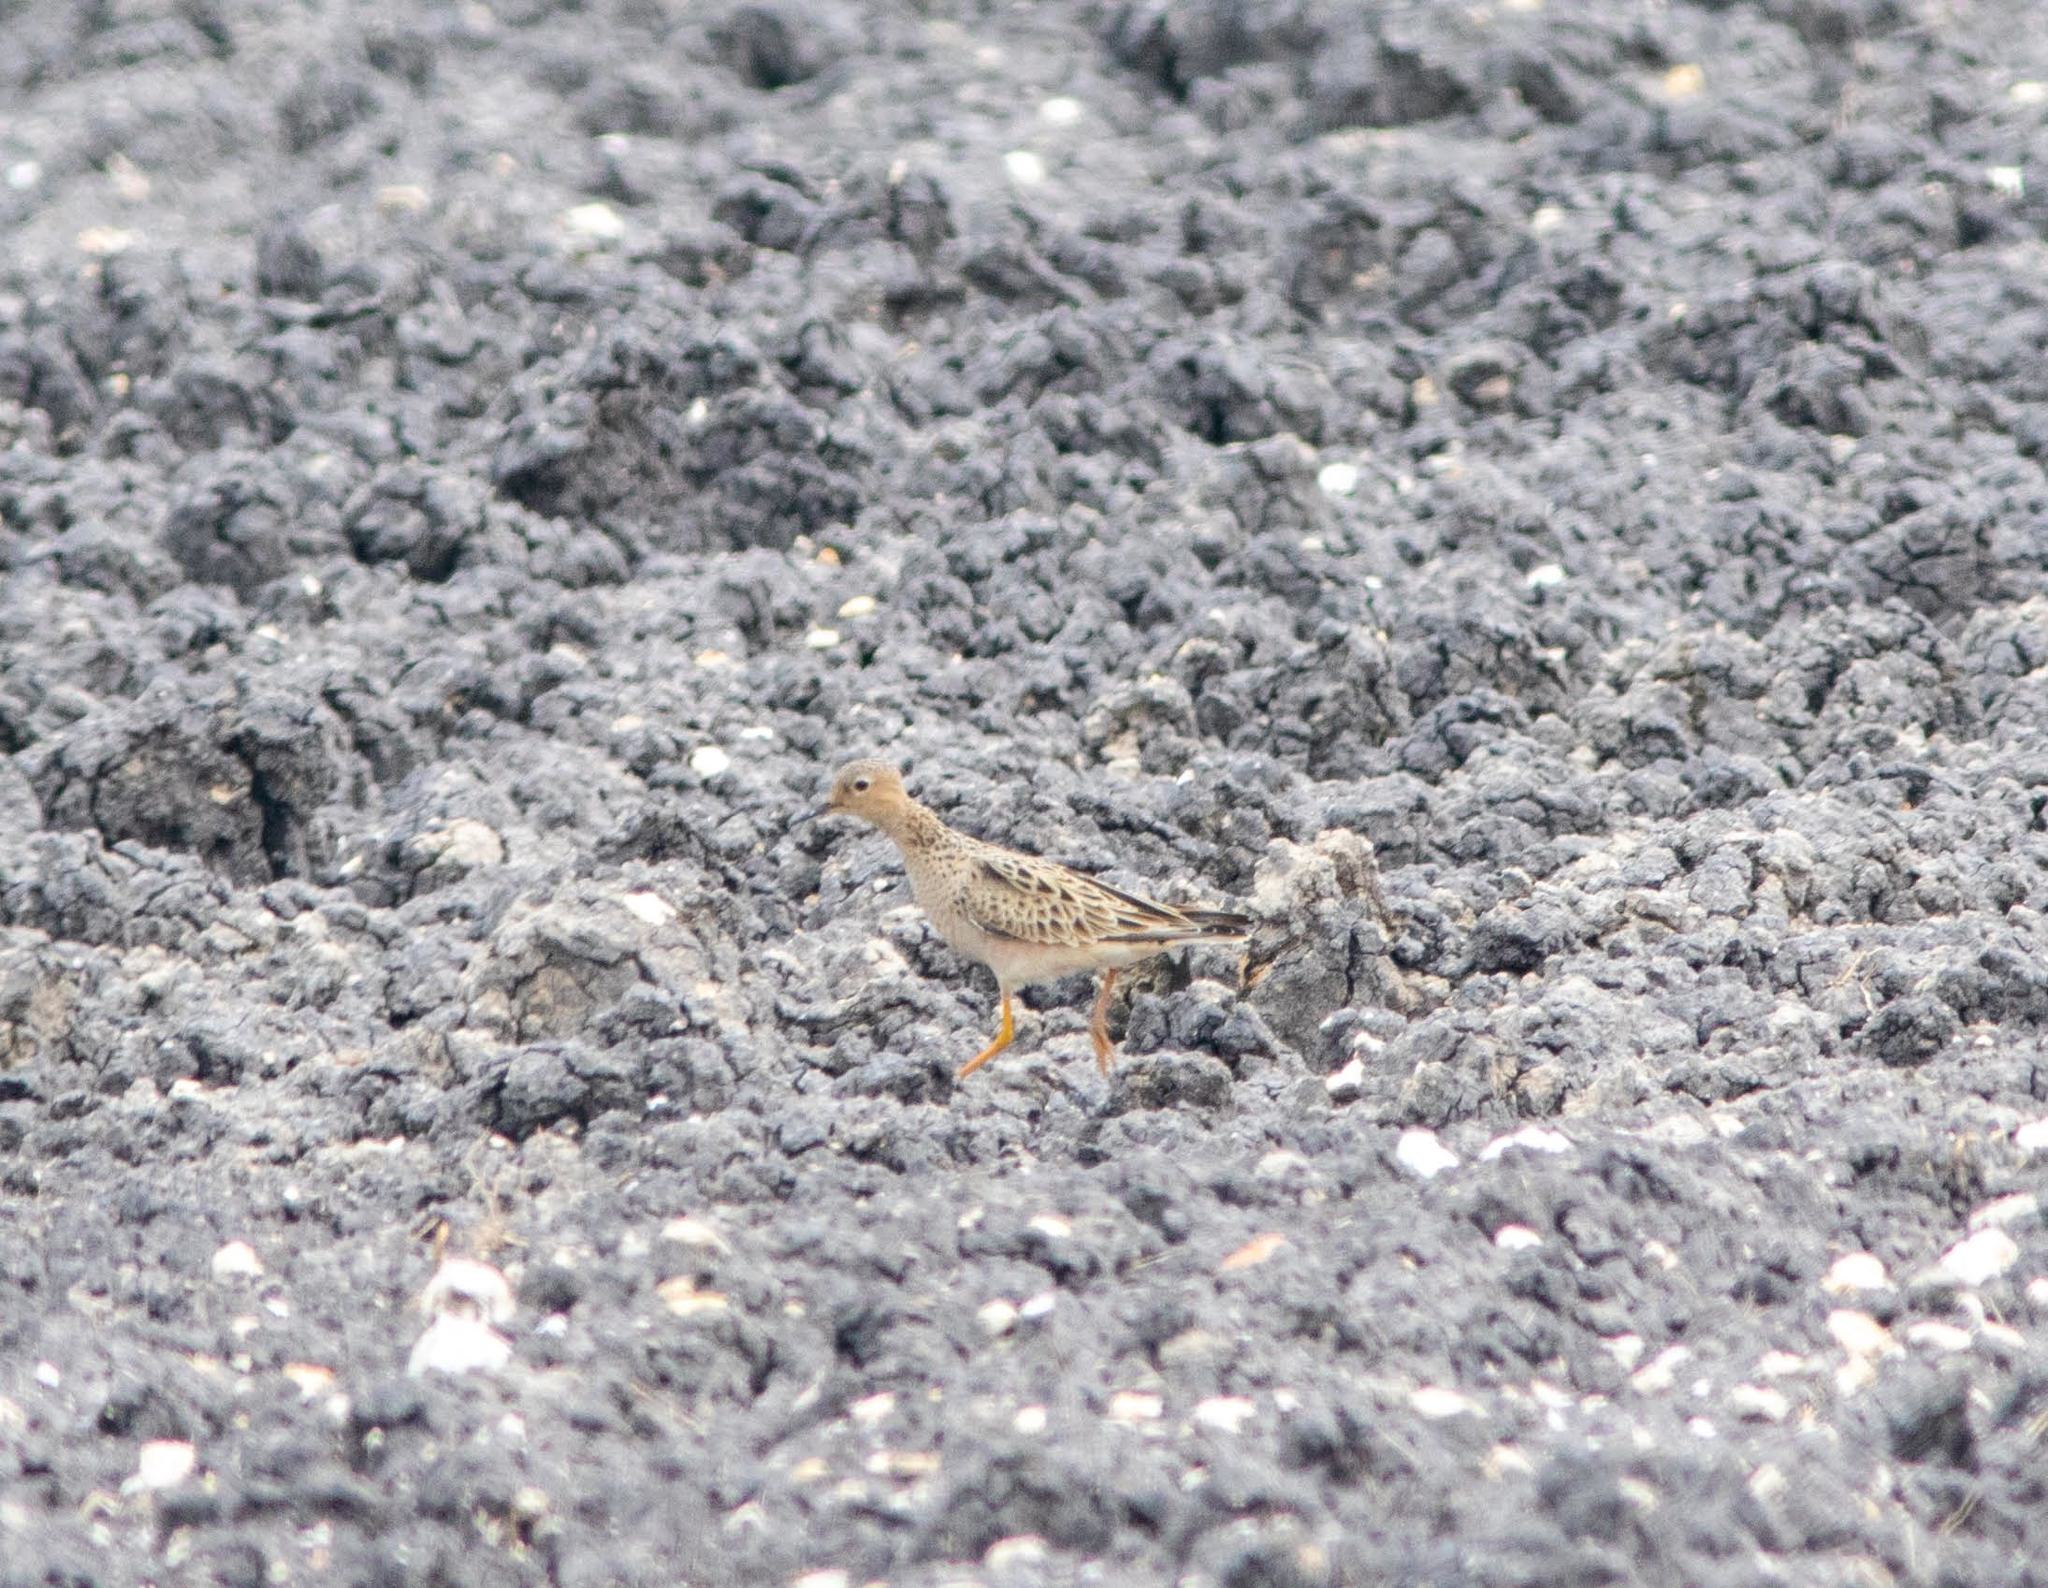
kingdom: Animalia
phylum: Chordata
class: Aves
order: Charadriiformes
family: Scolopacidae
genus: Calidris
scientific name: Calidris subruficollis
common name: Buff-breasted sandpiper
